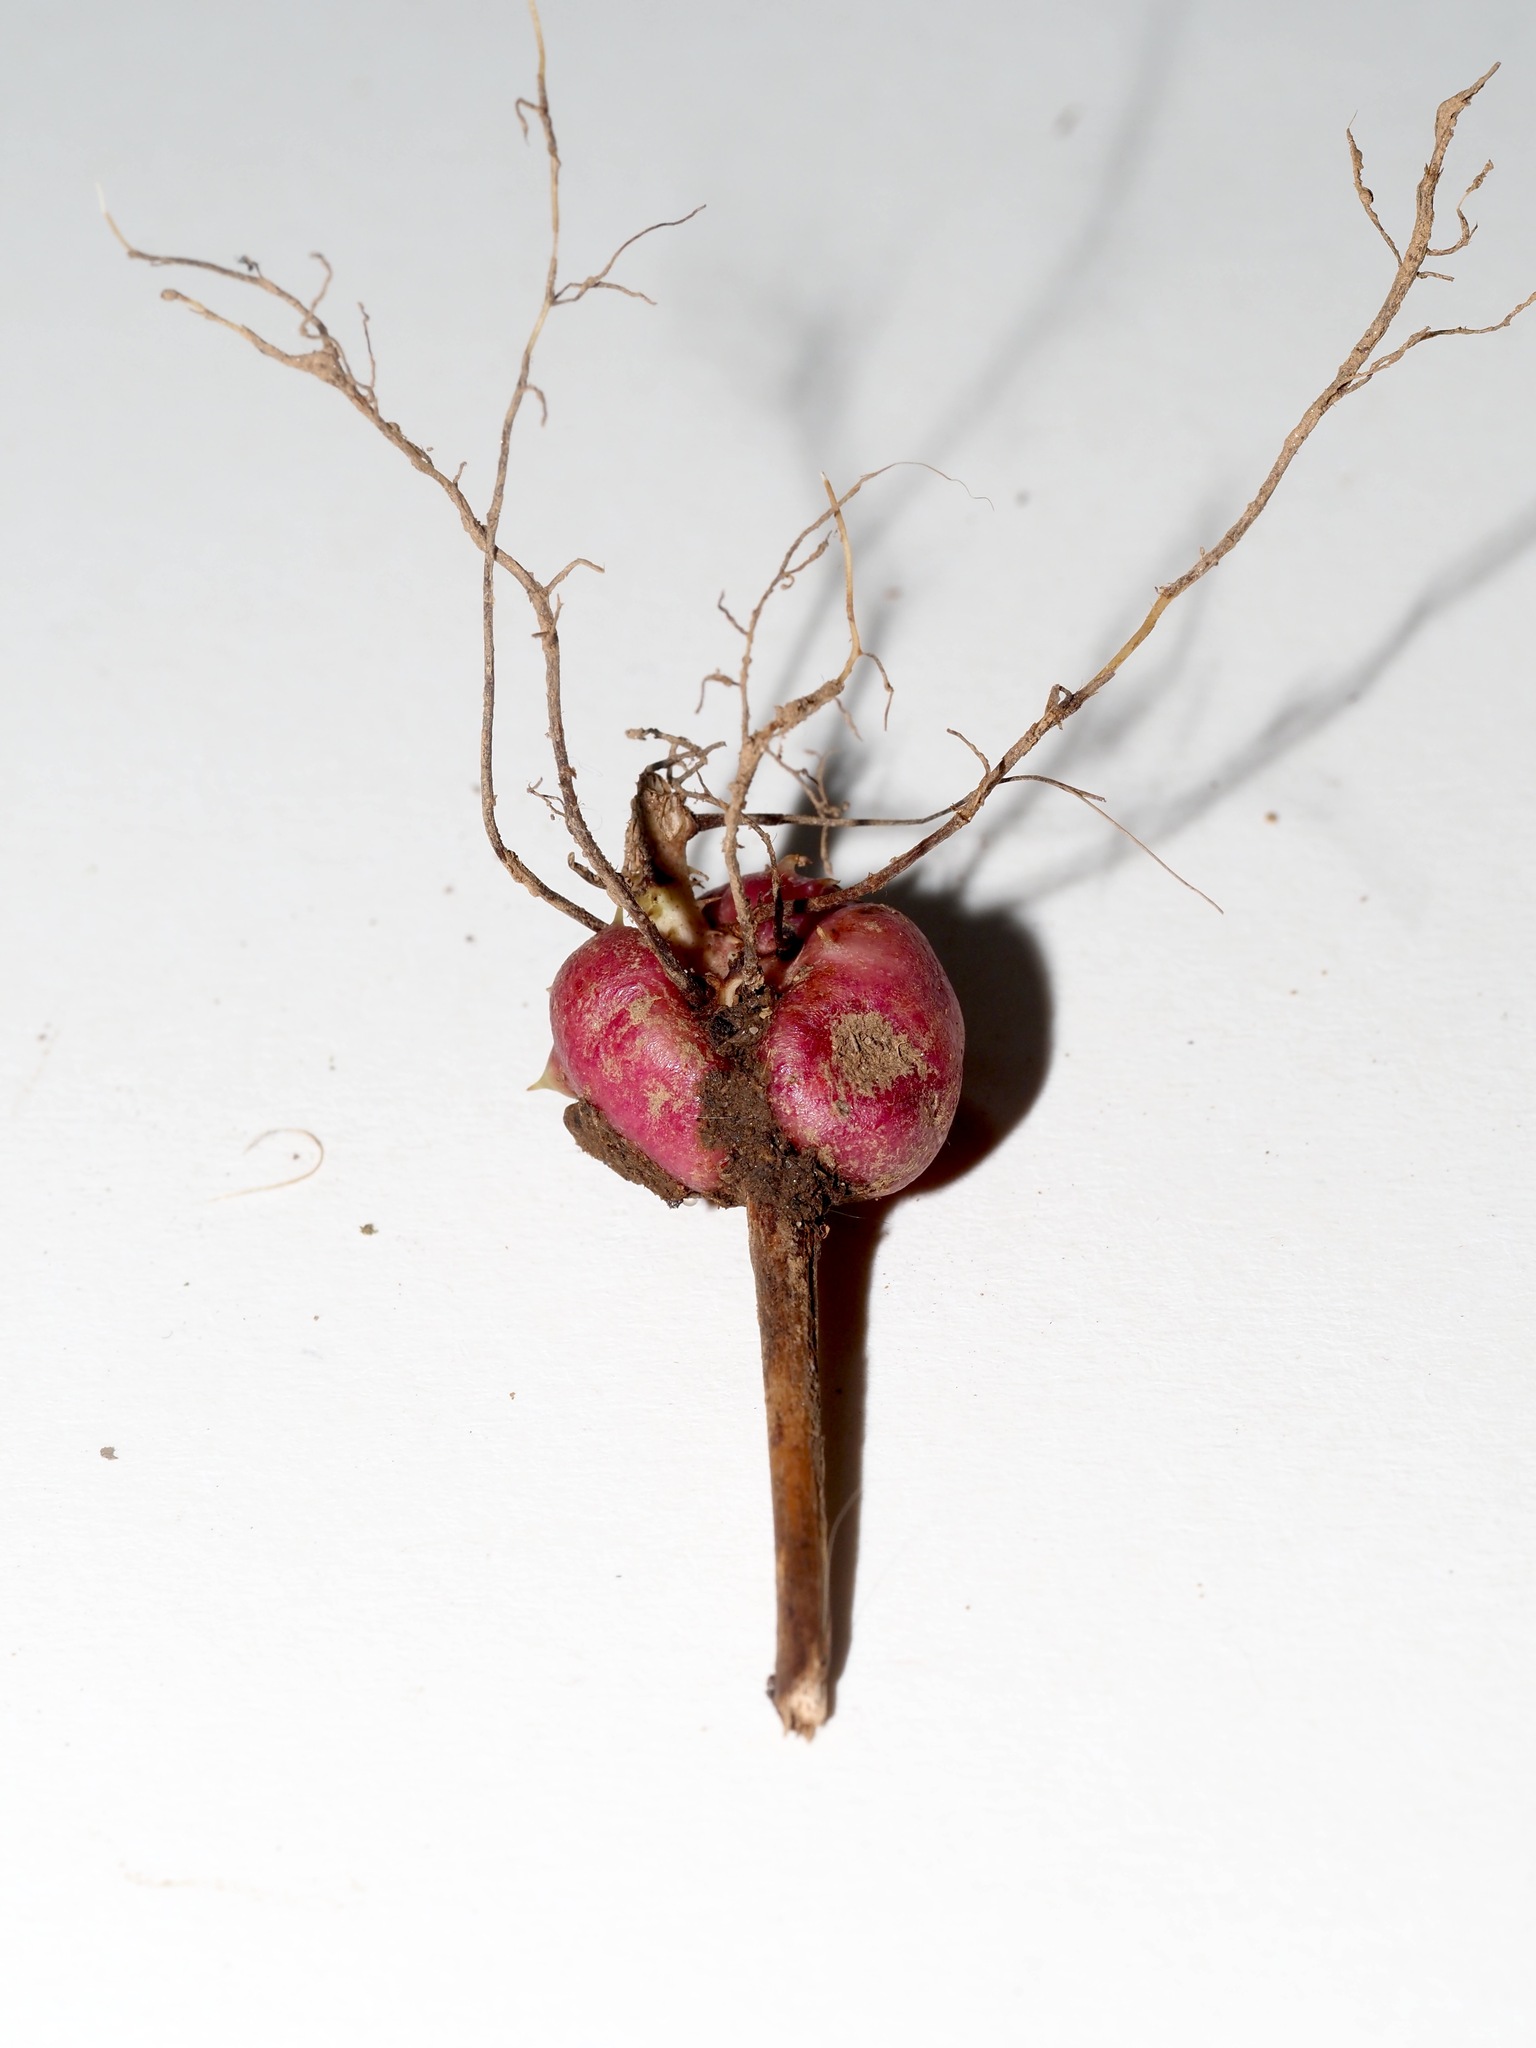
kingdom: Animalia
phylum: Arthropoda
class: Insecta
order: Hymenoptera
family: Cynipidae
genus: Diastrophus
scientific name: Diastrophus
